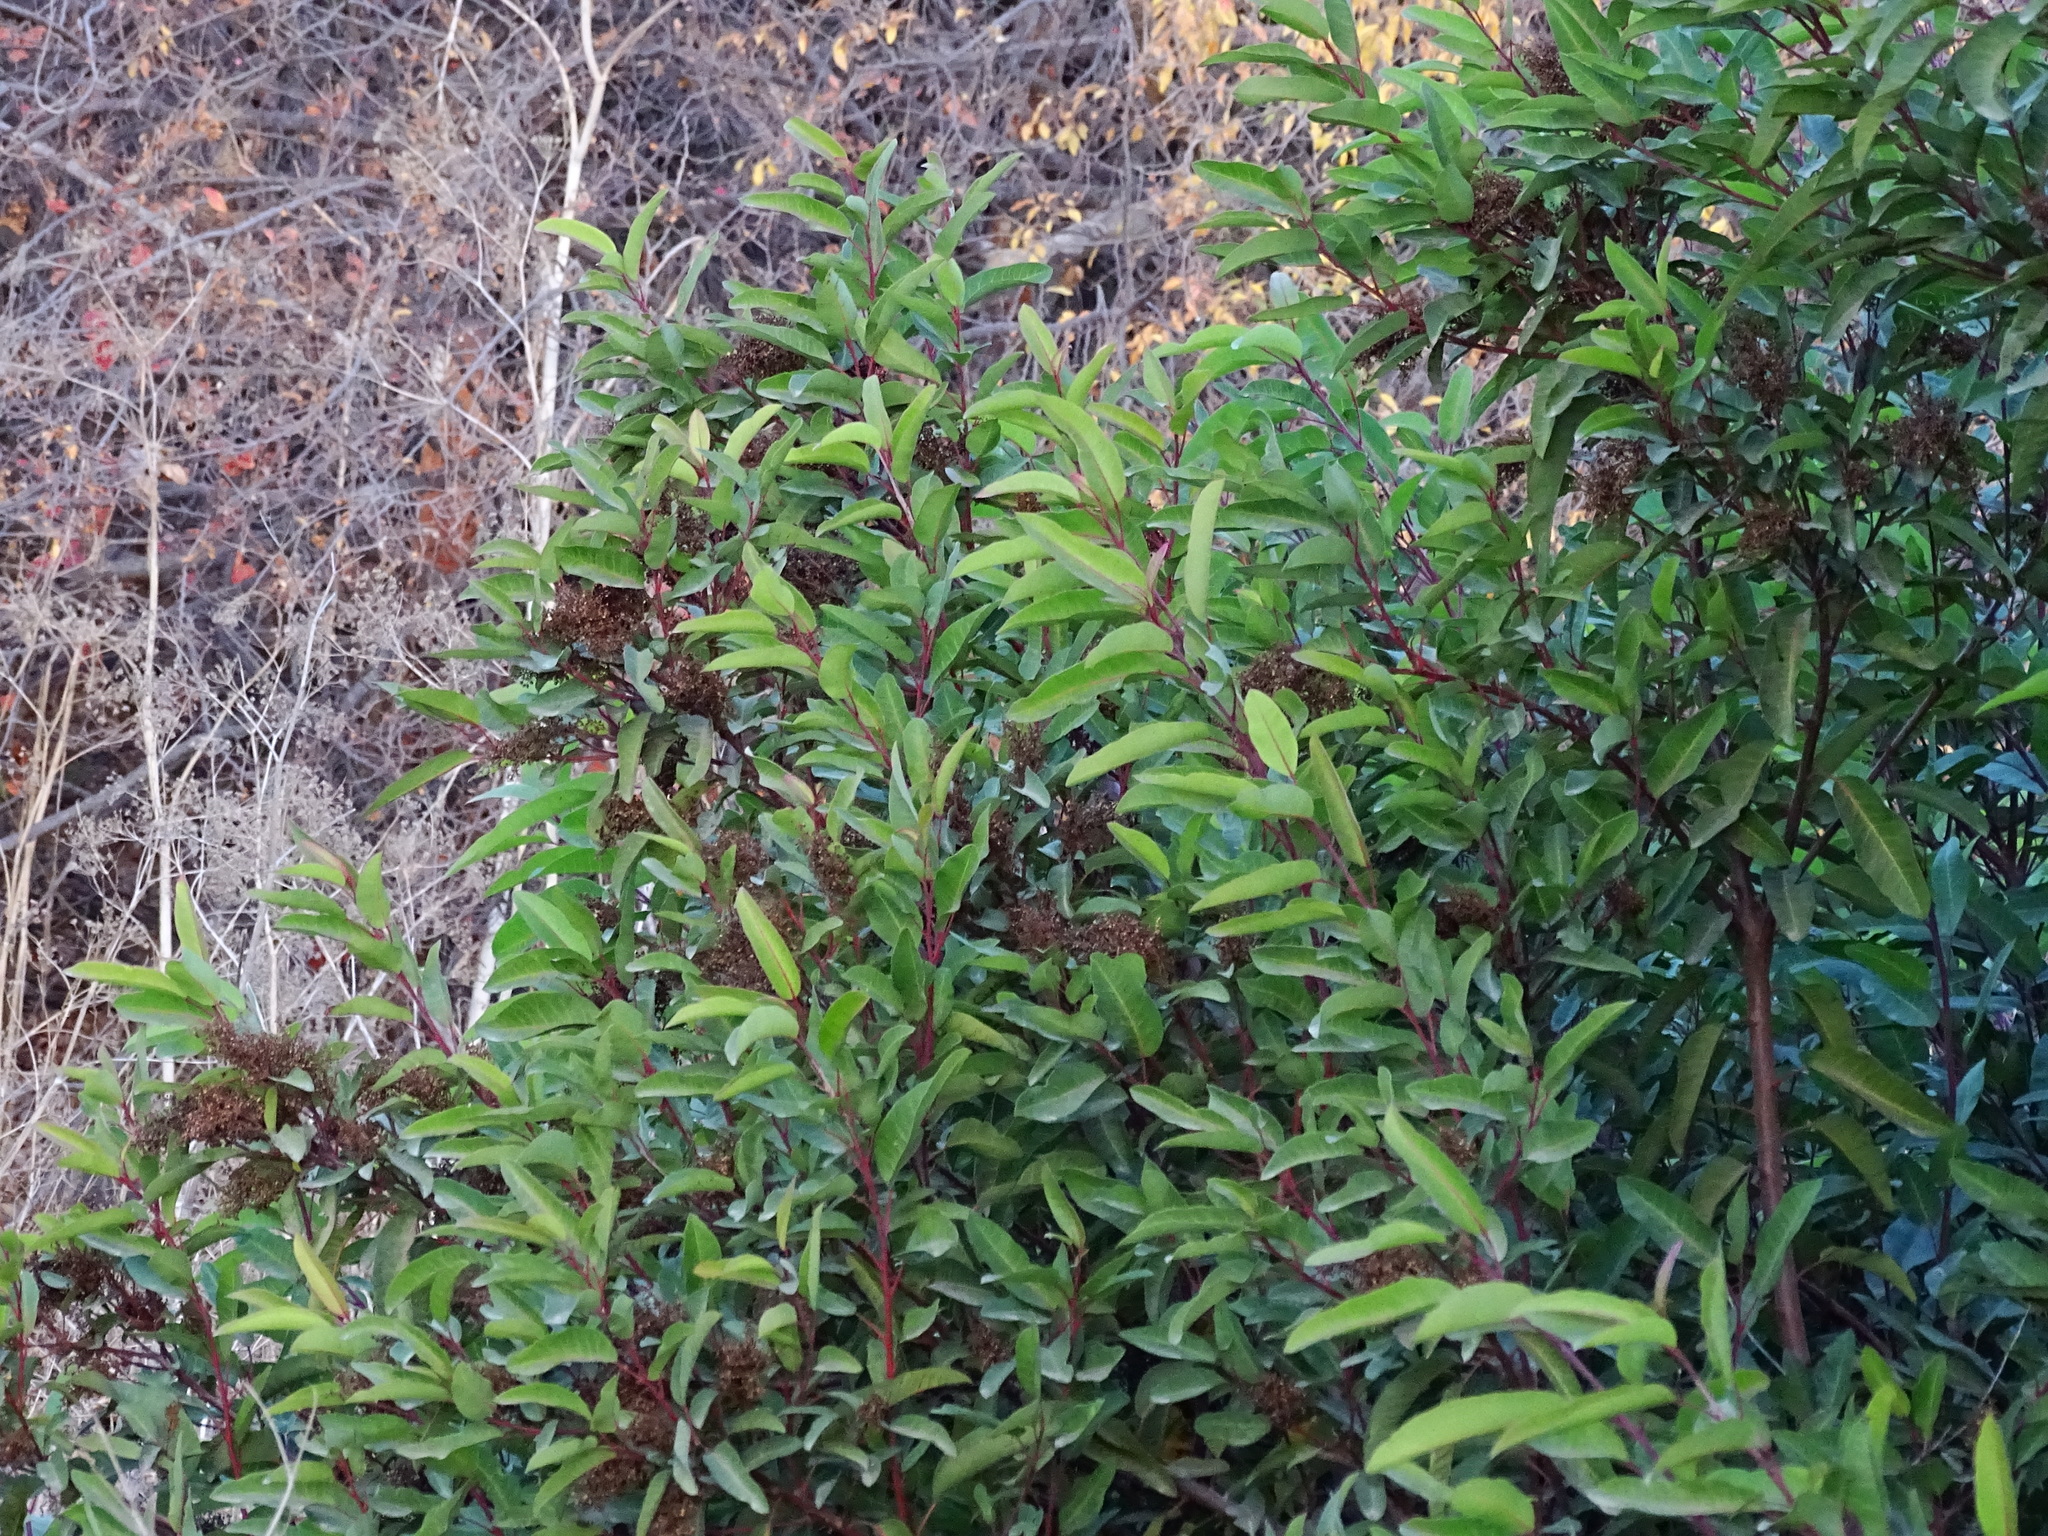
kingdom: Plantae
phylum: Tracheophyta
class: Magnoliopsida
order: Sapindales
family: Anacardiaceae
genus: Malosma
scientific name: Malosma laurina
